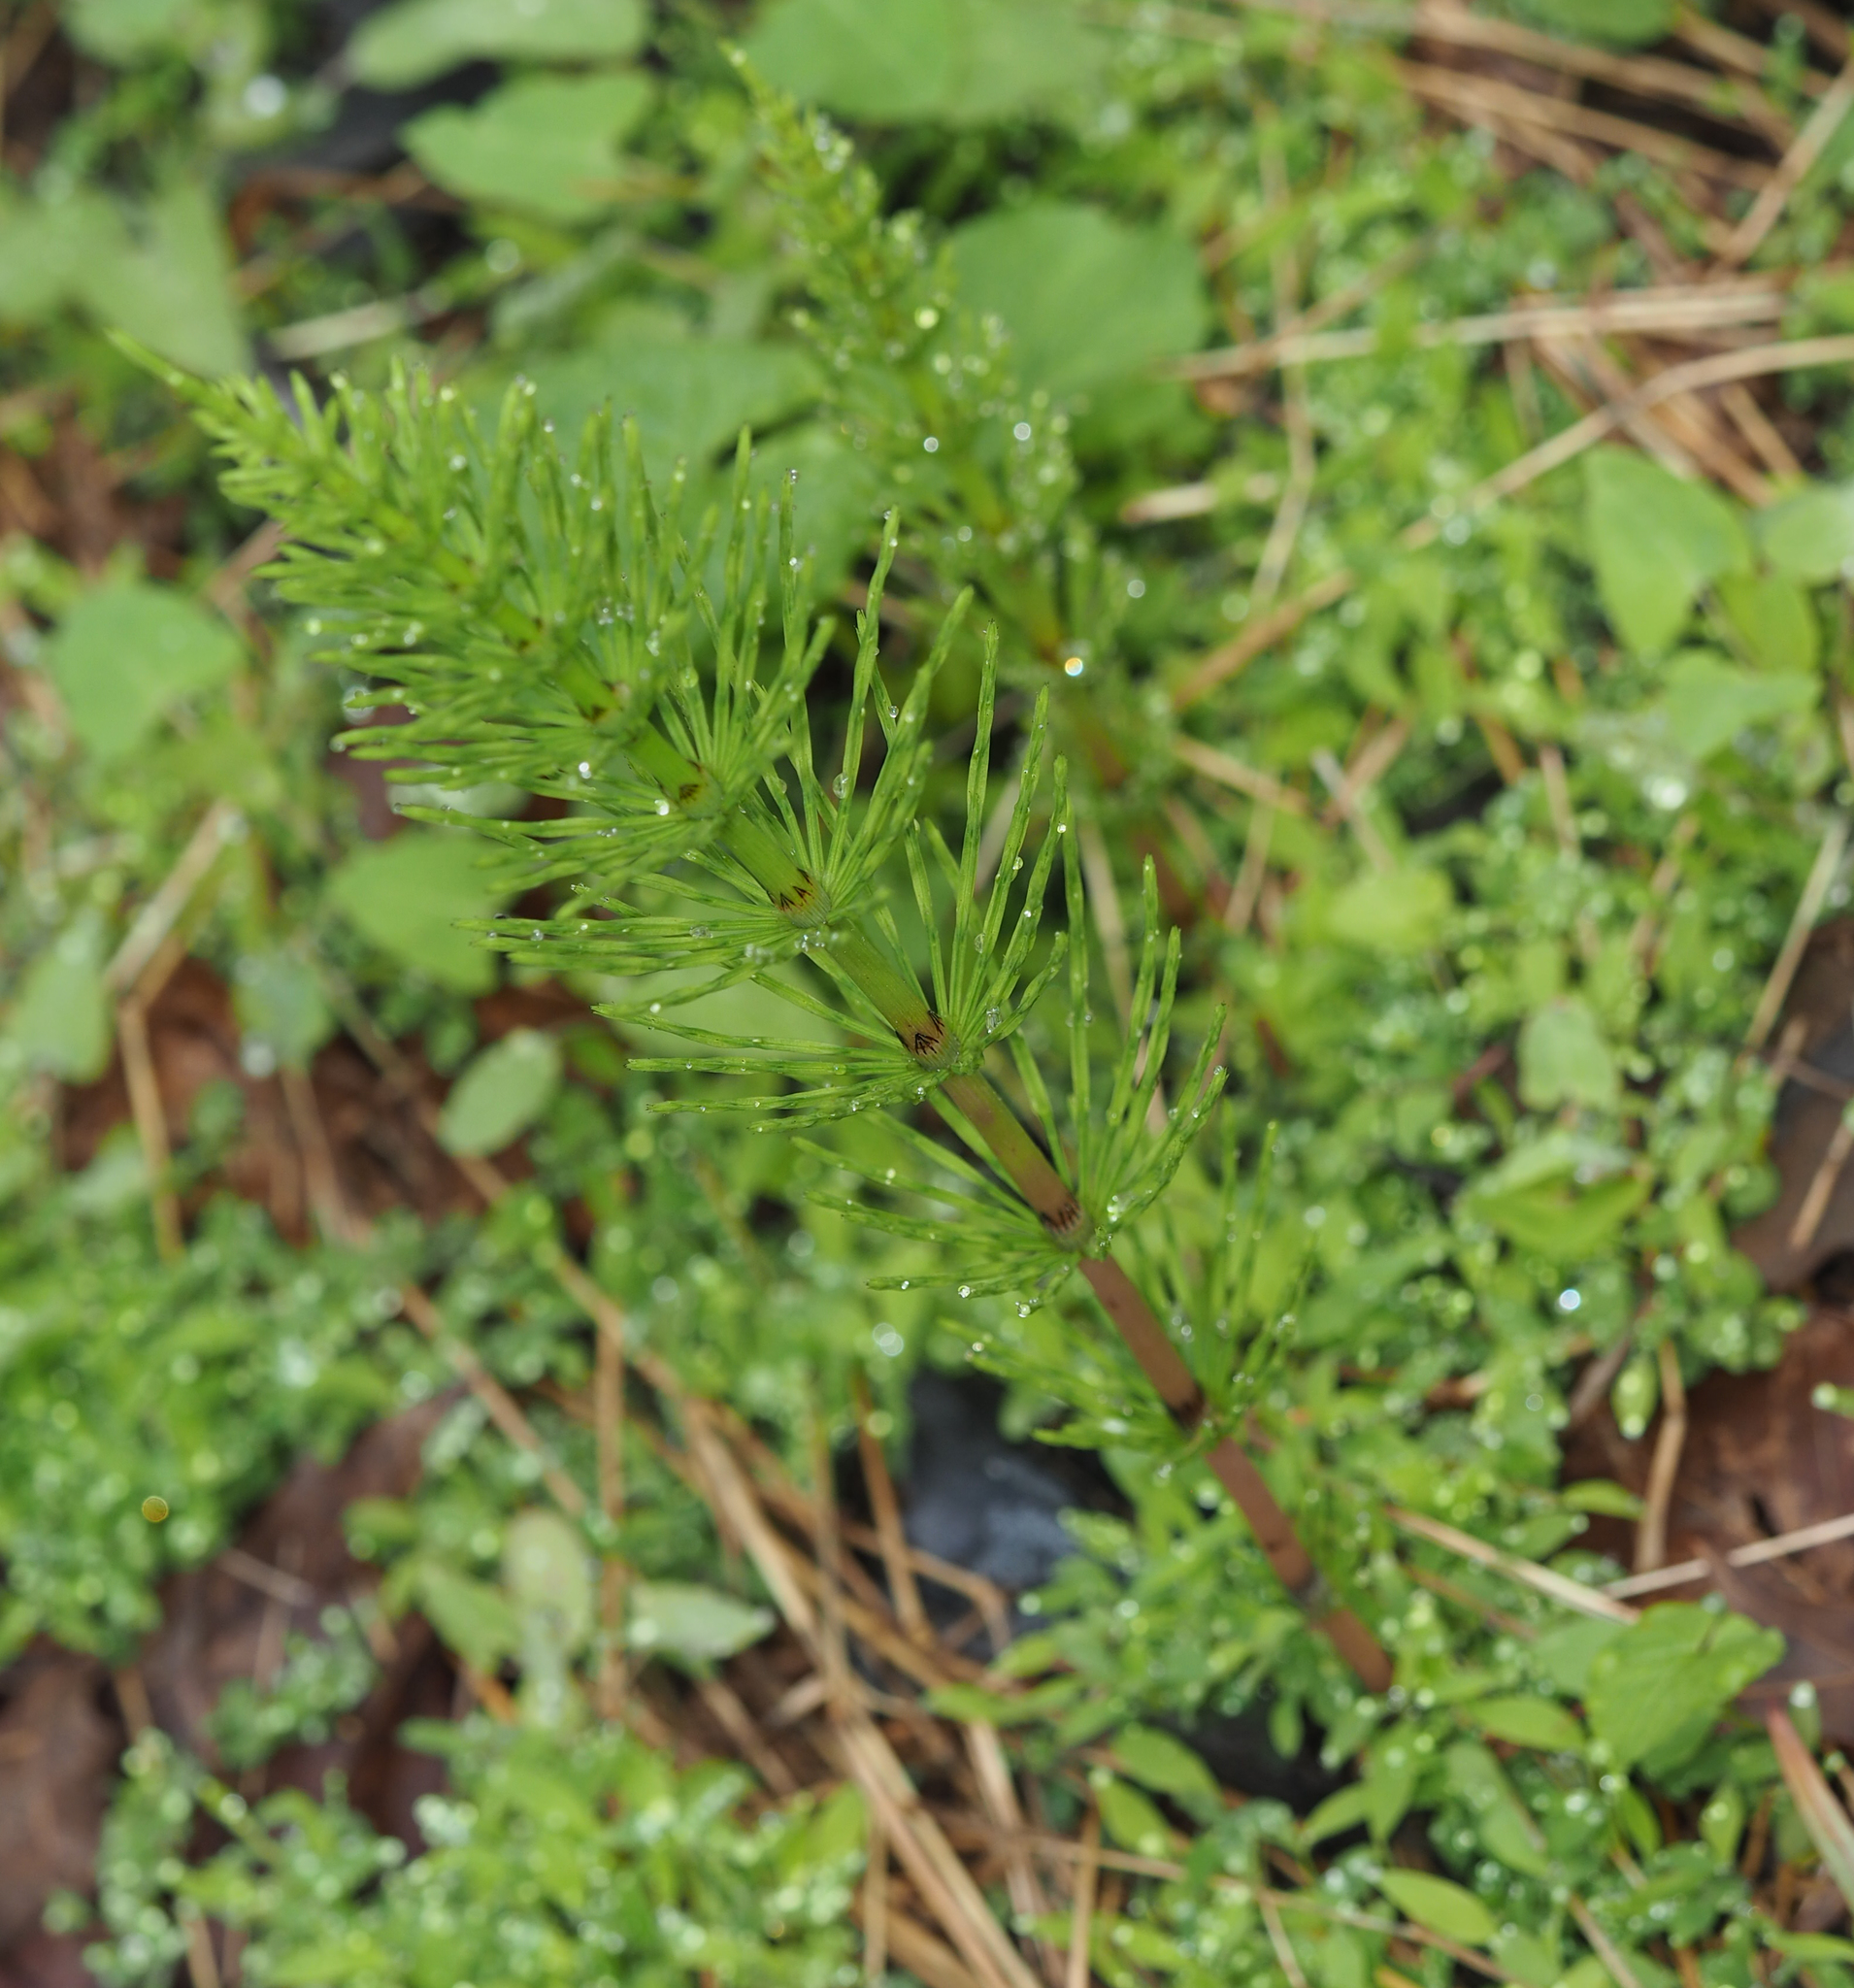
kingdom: Plantae
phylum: Tracheophyta
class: Polypodiopsida
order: Equisetales
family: Equisetaceae
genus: Equisetum
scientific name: Equisetum arvense
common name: Field horsetail
